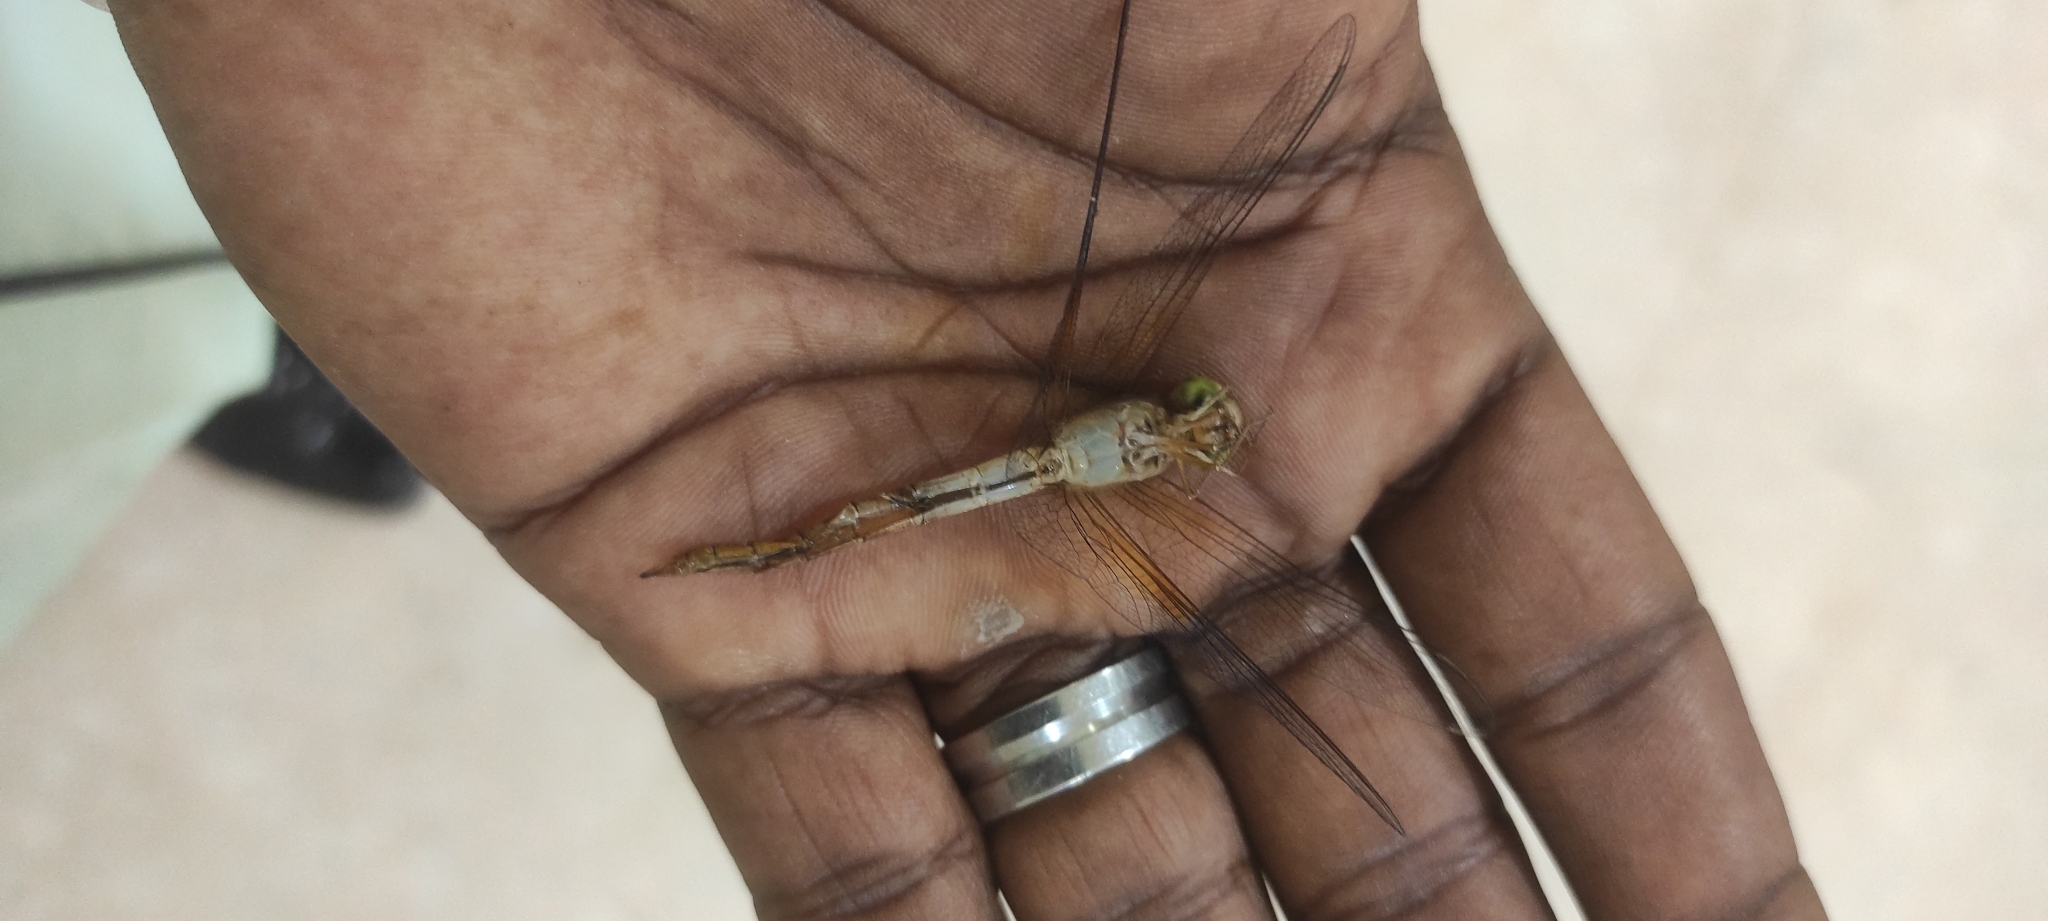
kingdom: Animalia
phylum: Arthropoda
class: Insecta
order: Odonata
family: Libellulidae
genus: Tholymis
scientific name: Tholymis tillarga
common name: Coral-tailed cloud wing
